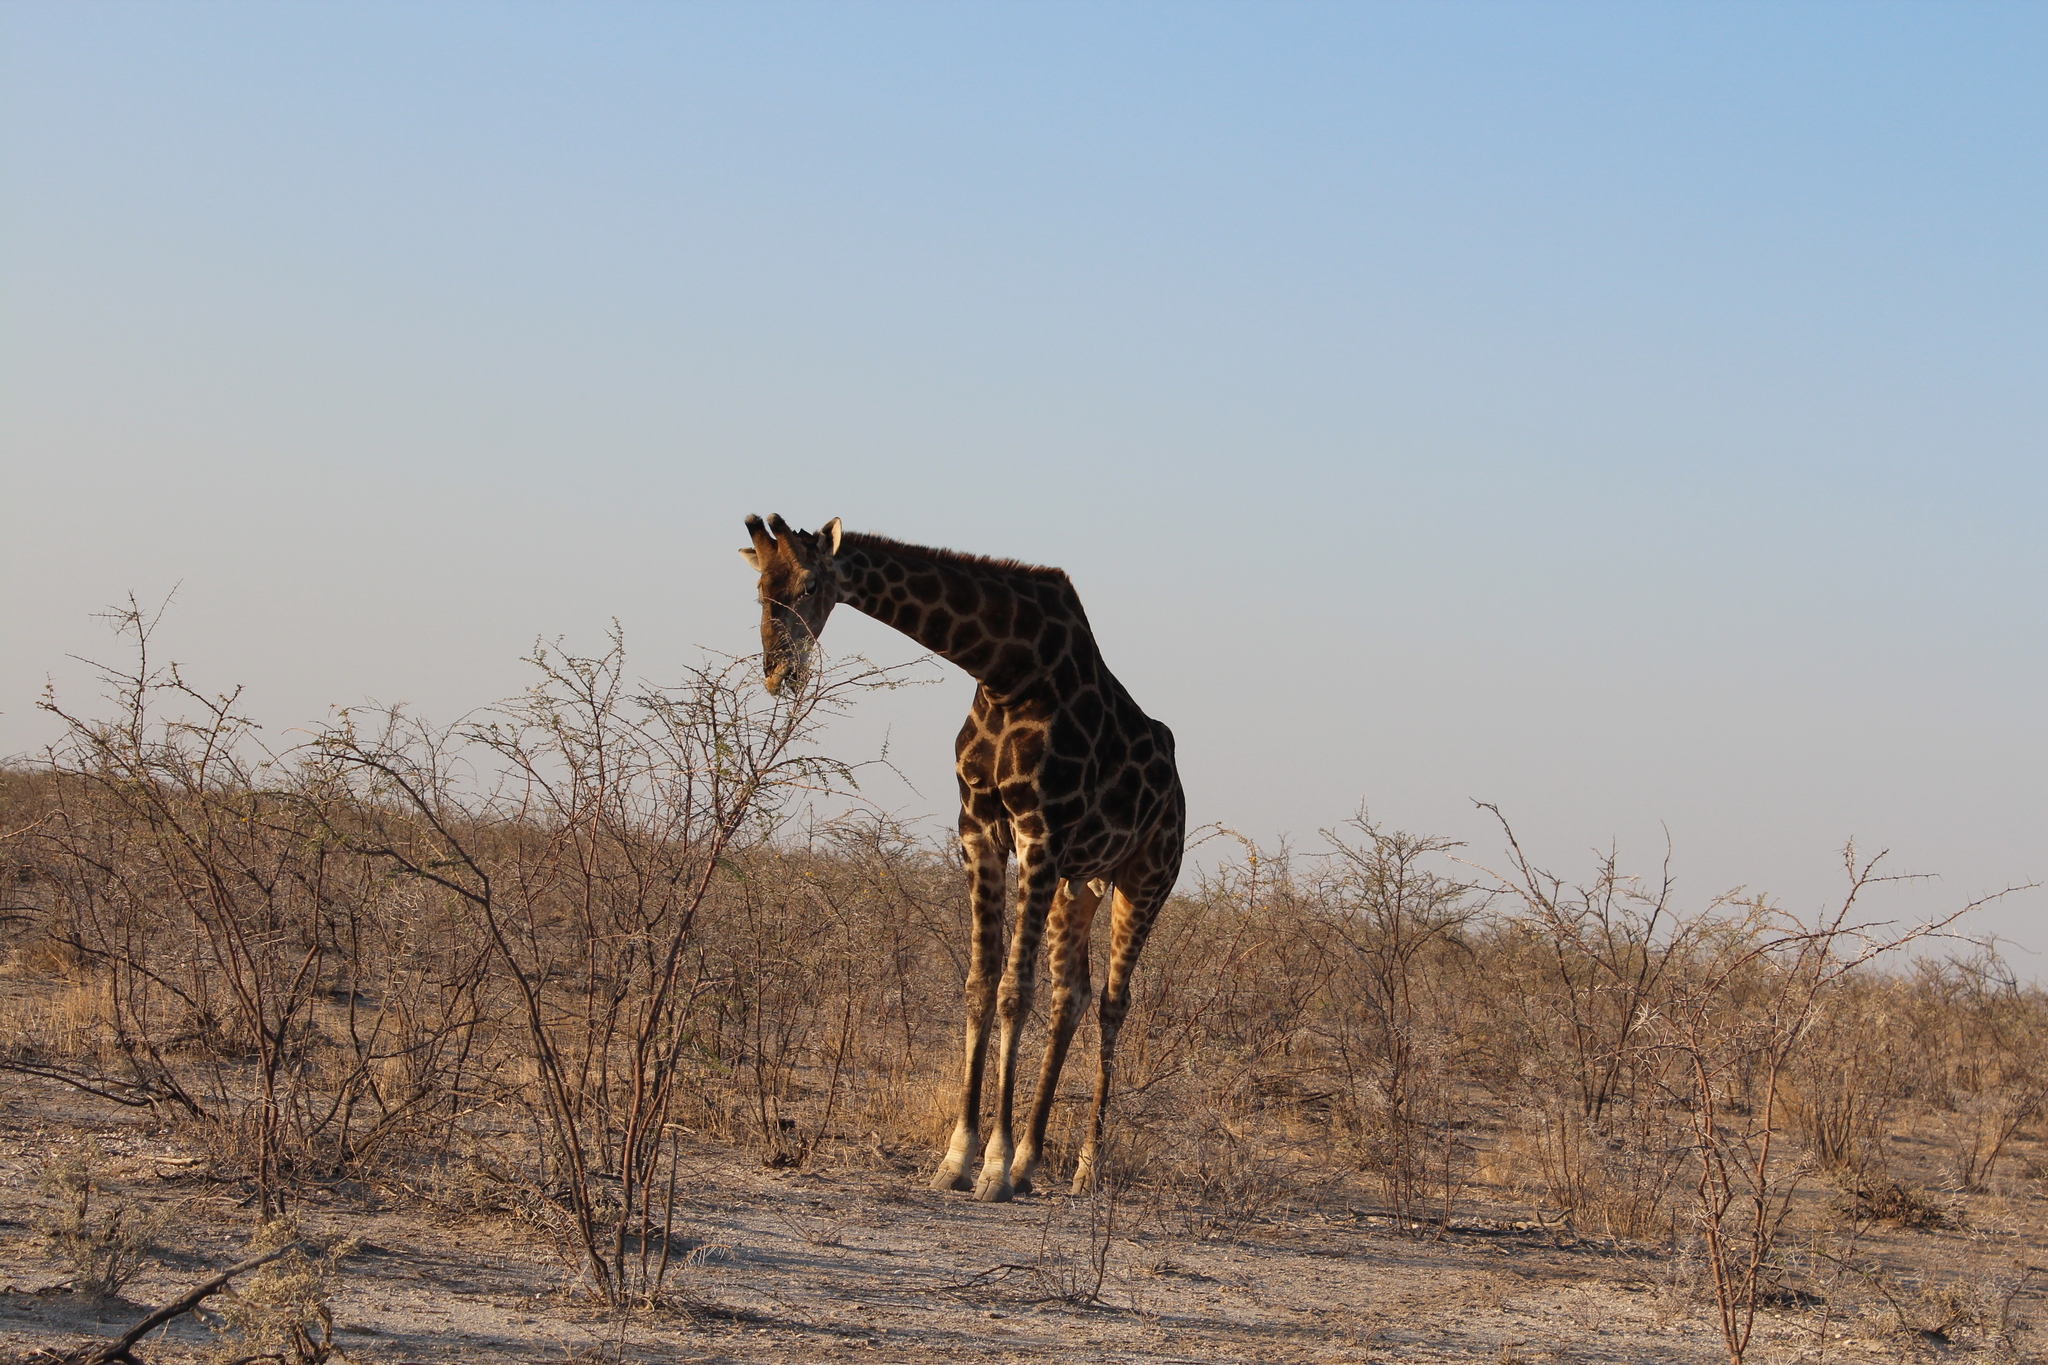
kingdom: Animalia
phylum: Chordata
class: Mammalia
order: Artiodactyla
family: Giraffidae
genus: Giraffa
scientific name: Giraffa giraffa
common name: Southern giraffe
